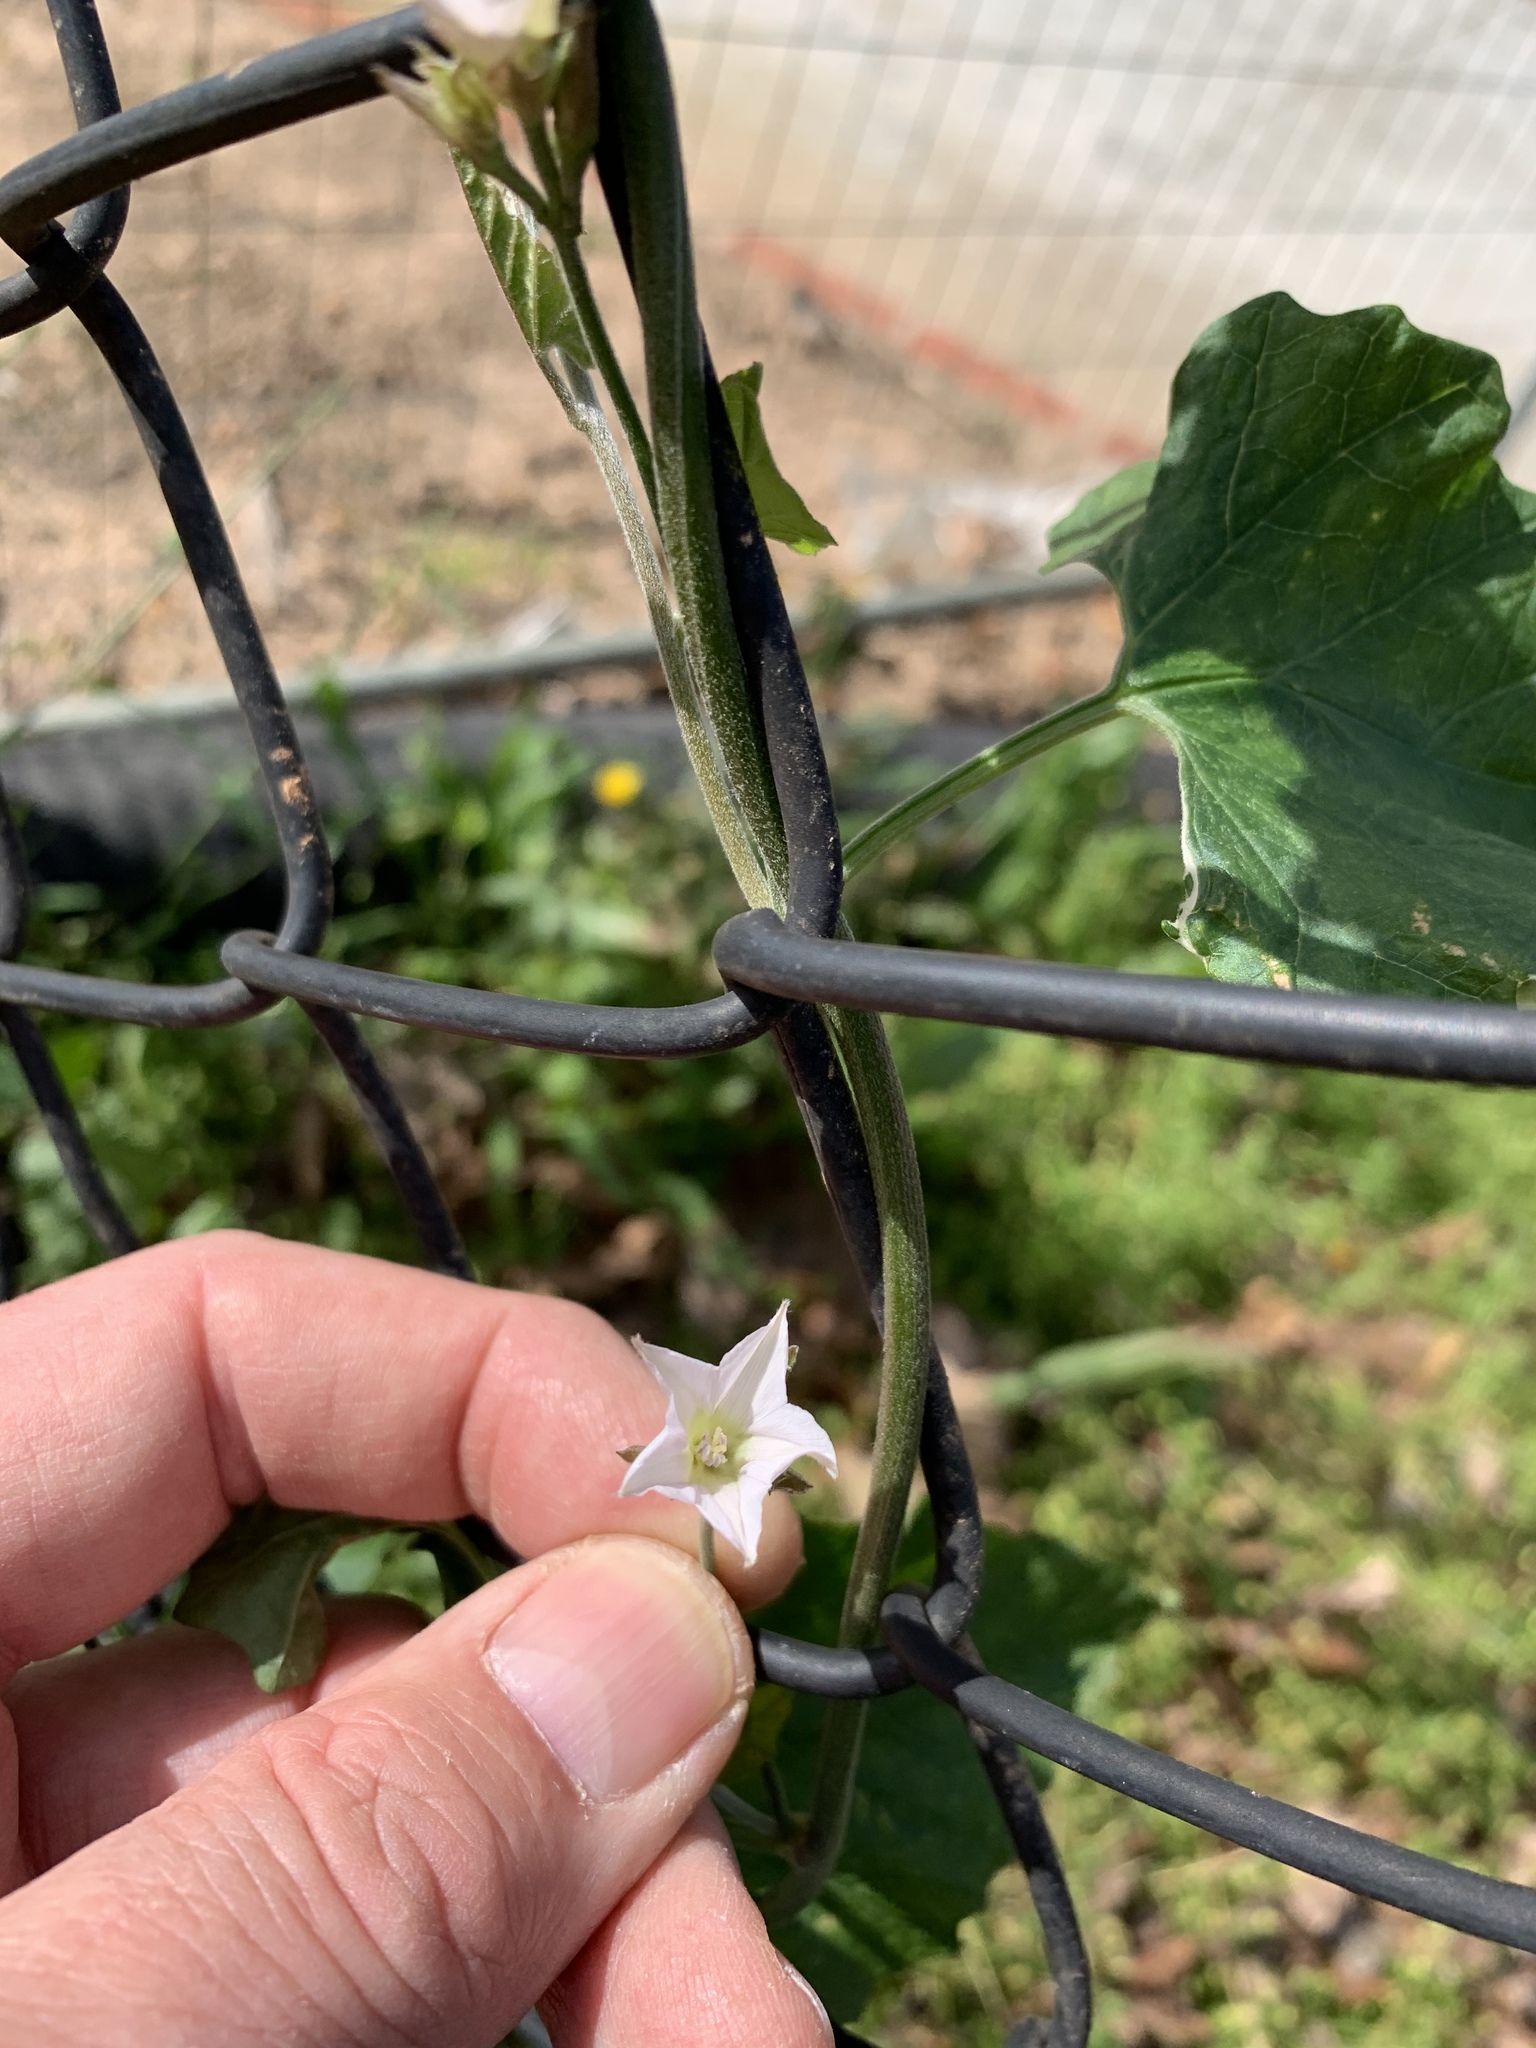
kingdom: Plantae
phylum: Tracheophyta
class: Magnoliopsida
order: Solanales
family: Convolvulaceae
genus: Convolvulus
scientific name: Convolvulus farinosus
